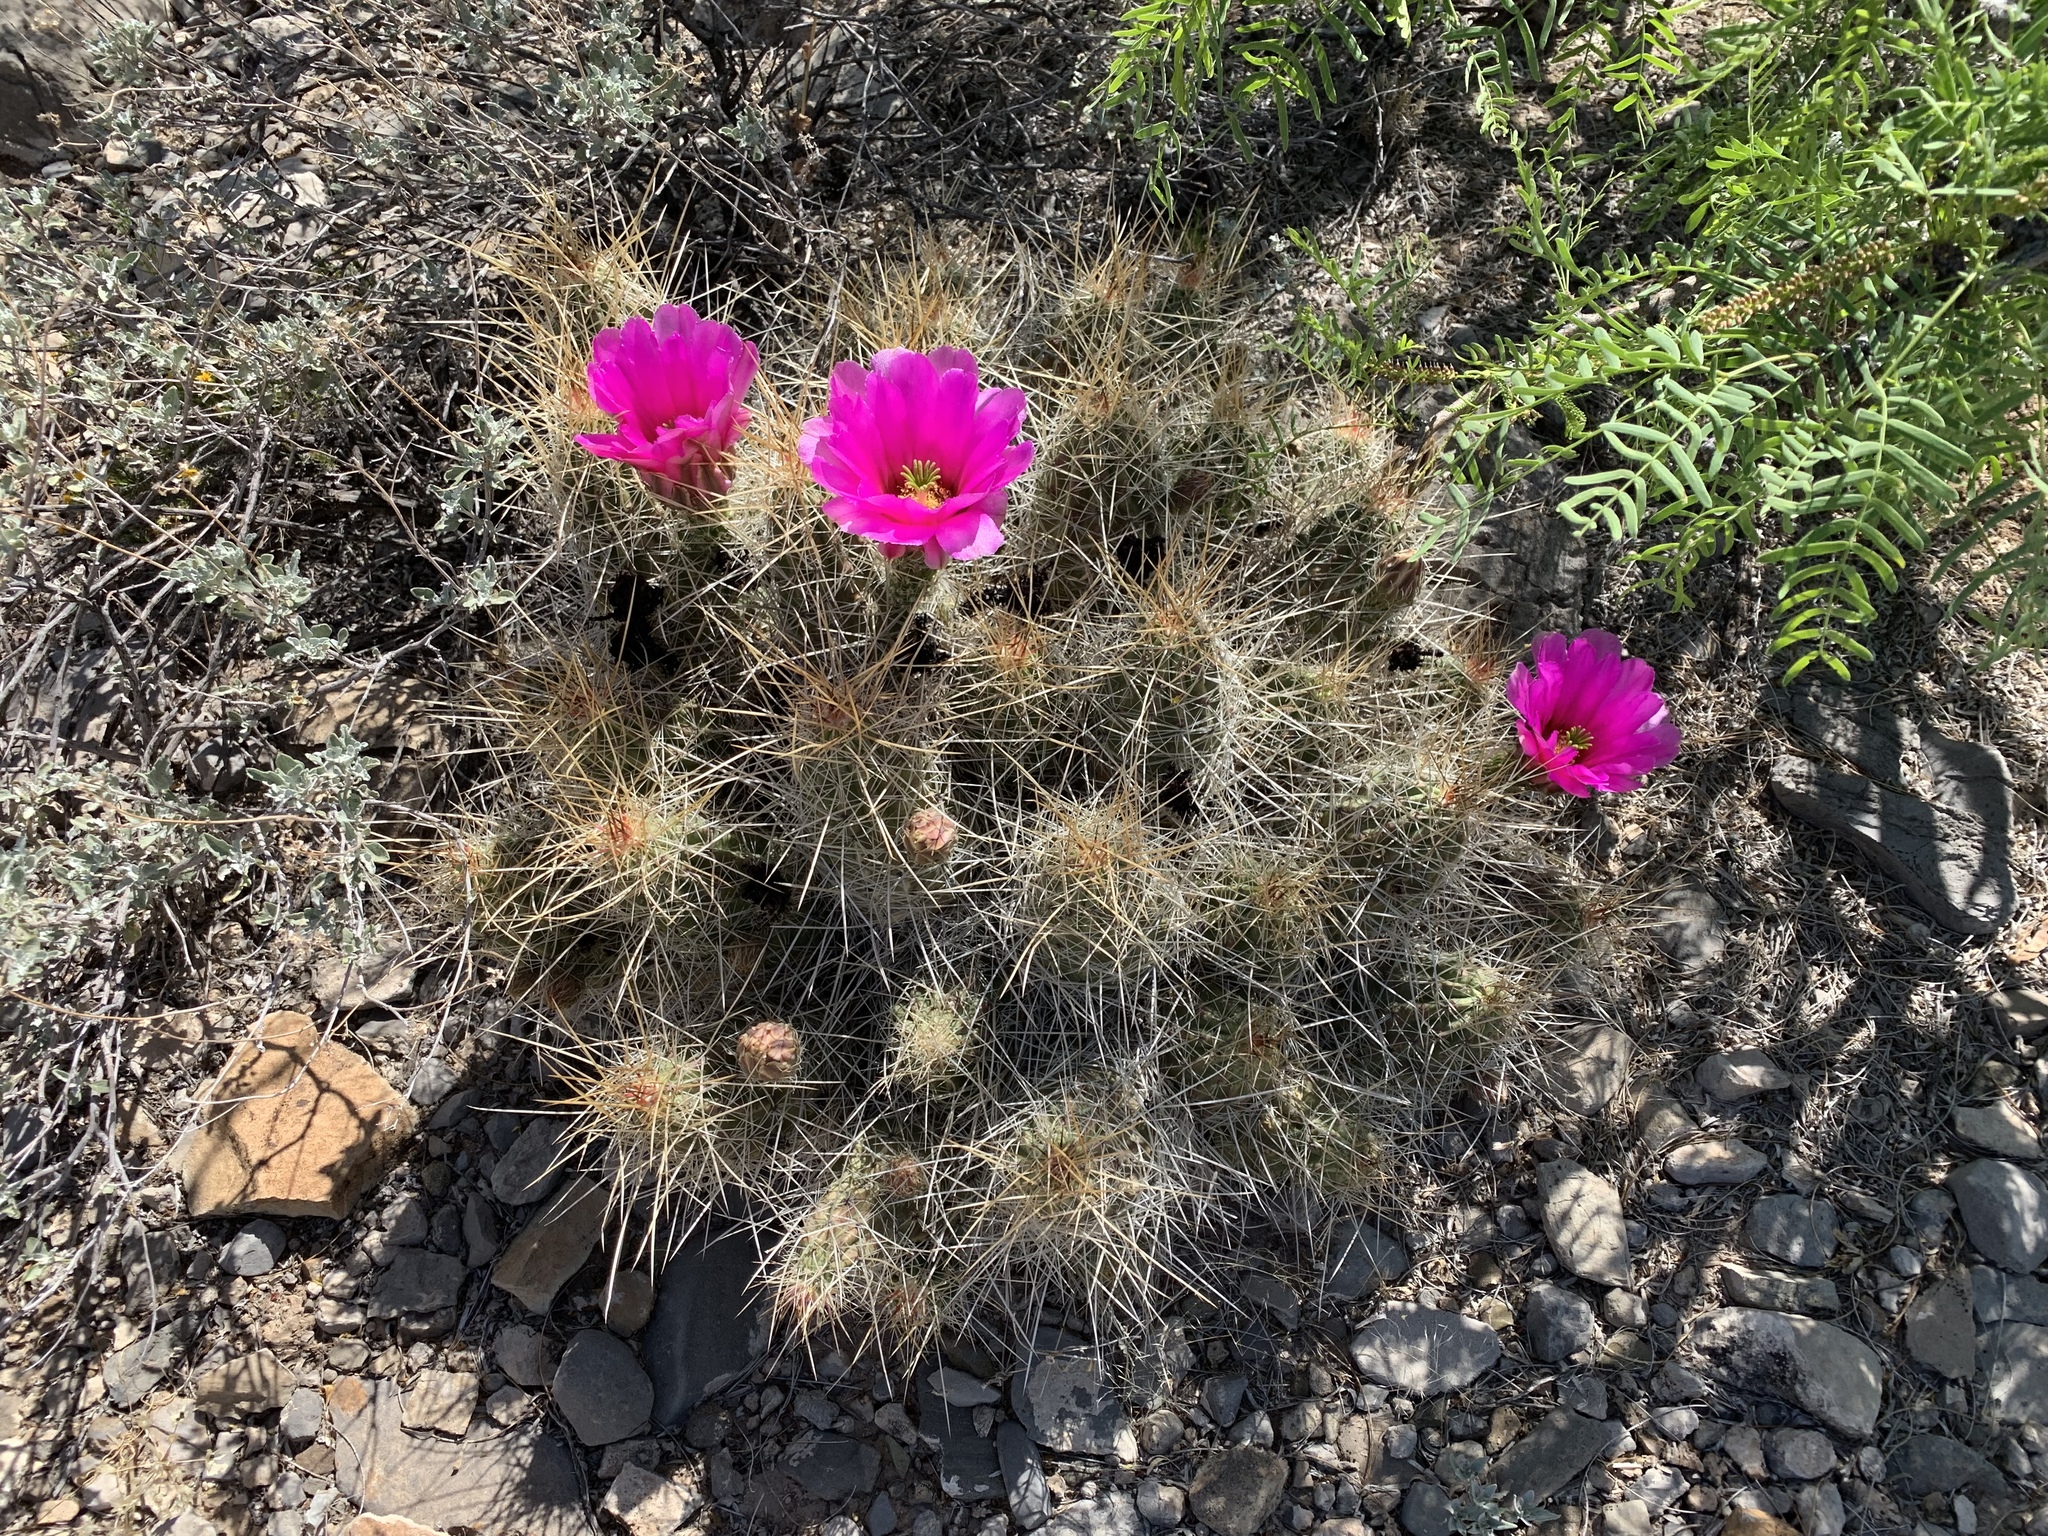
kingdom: Plantae
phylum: Tracheophyta
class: Magnoliopsida
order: Caryophyllales
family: Cactaceae
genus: Echinocereus
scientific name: Echinocereus stramineus
